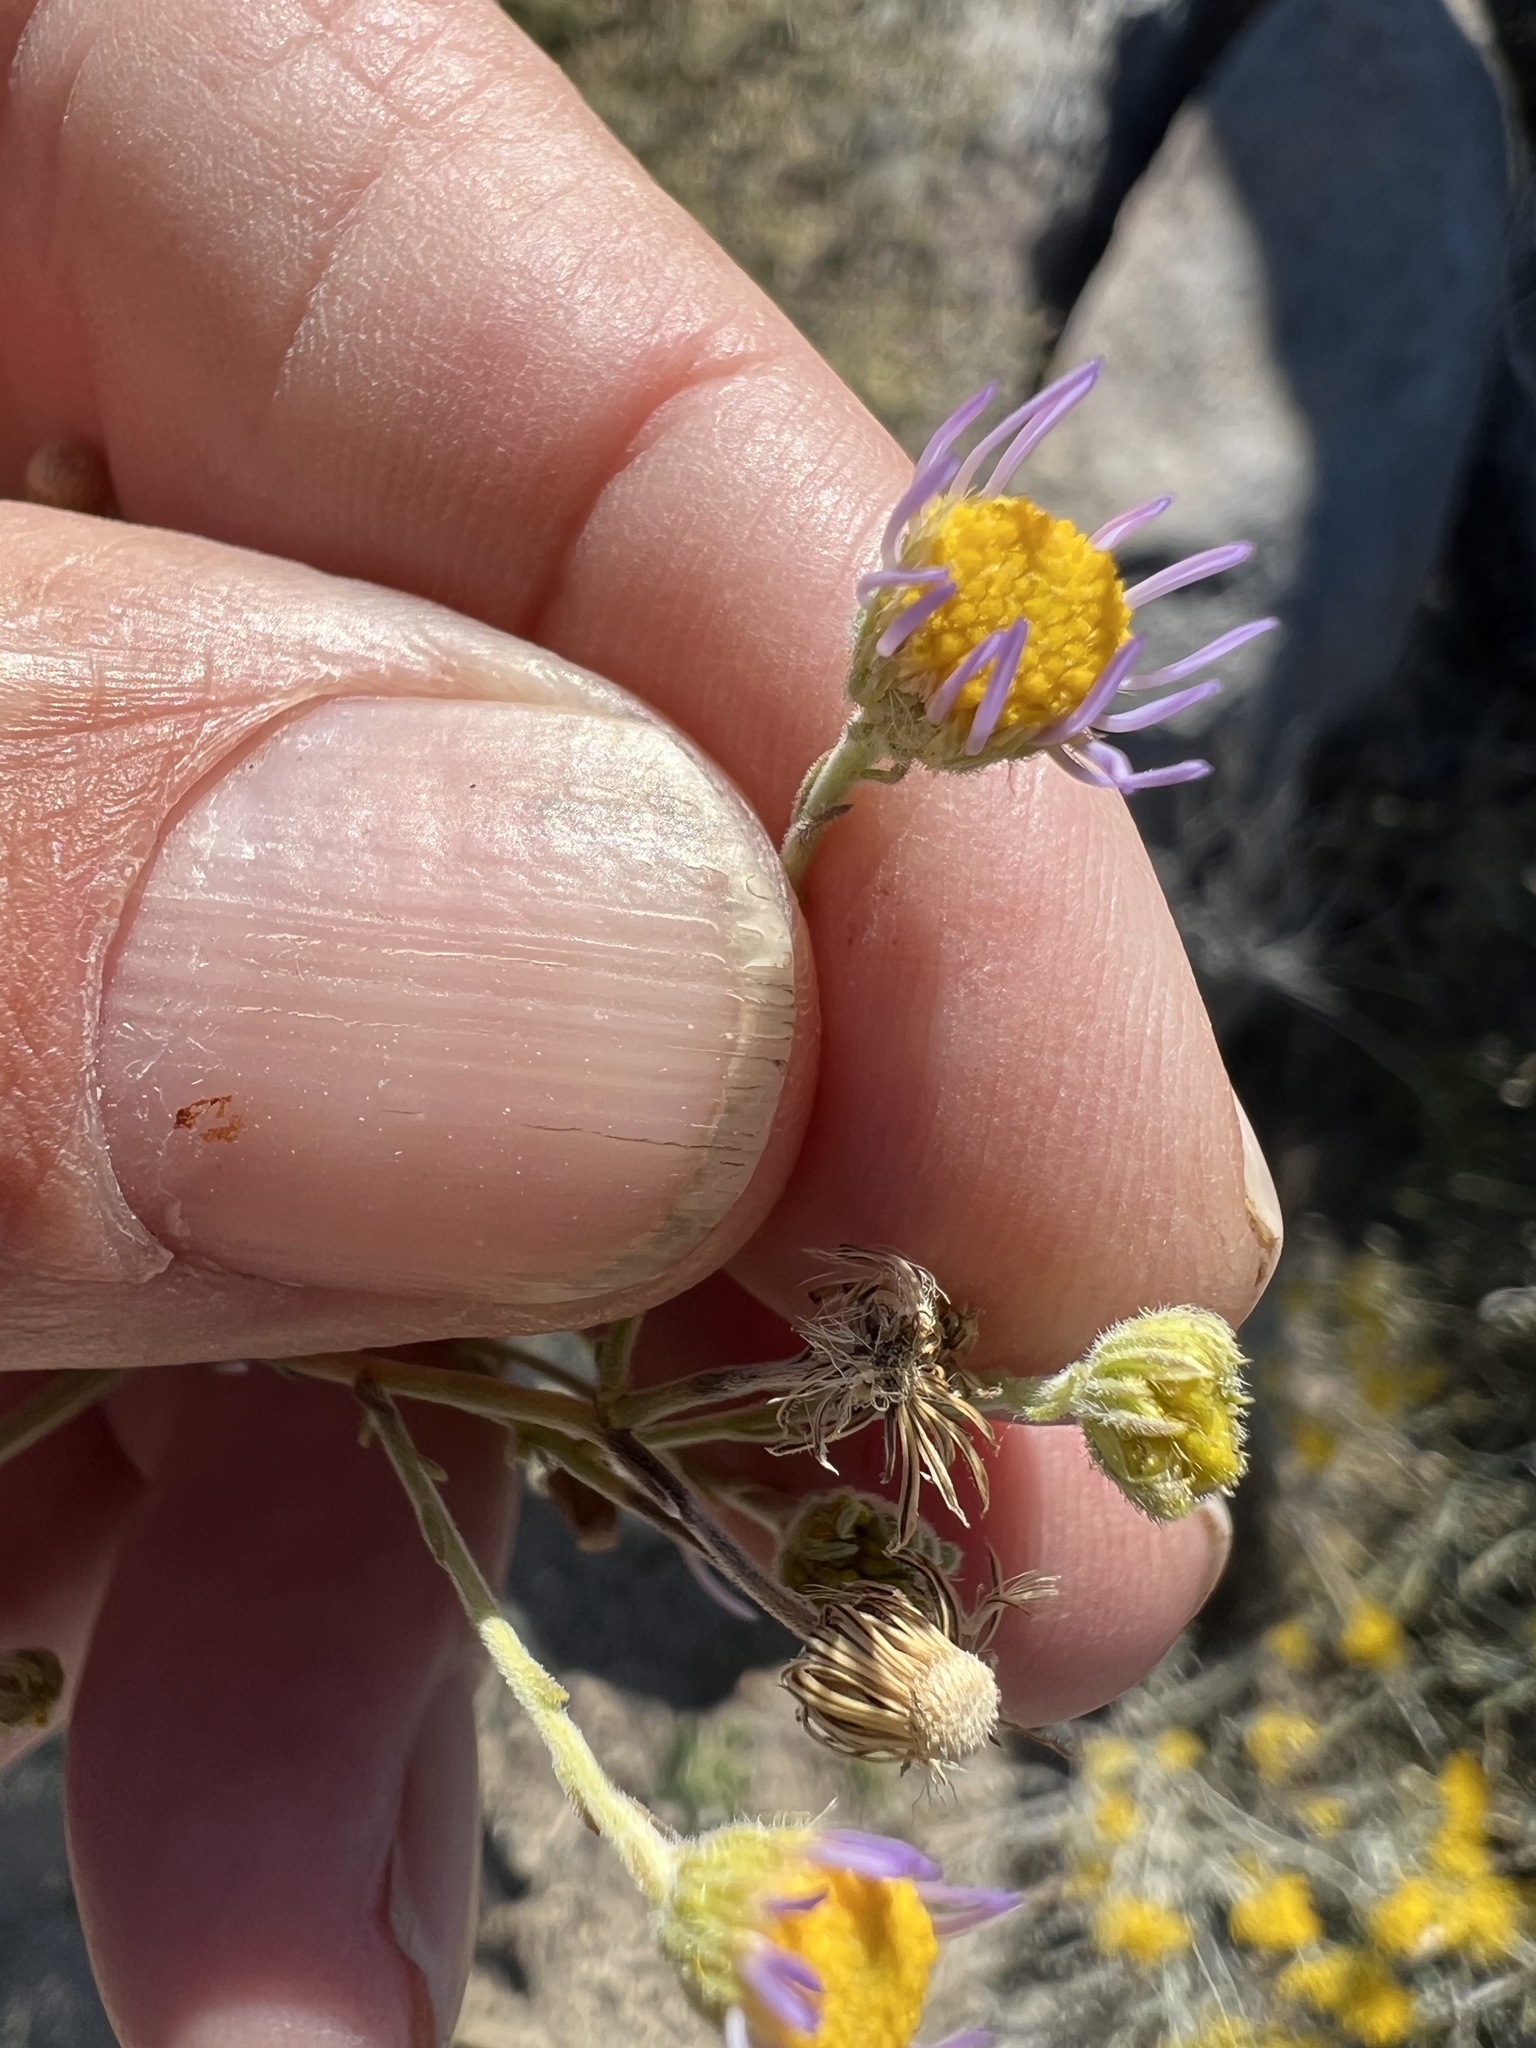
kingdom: Plantae
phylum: Tracheophyta
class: Magnoliopsida
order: Asterales
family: Asteraceae
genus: Erigeron
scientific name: Erigeron breweri
